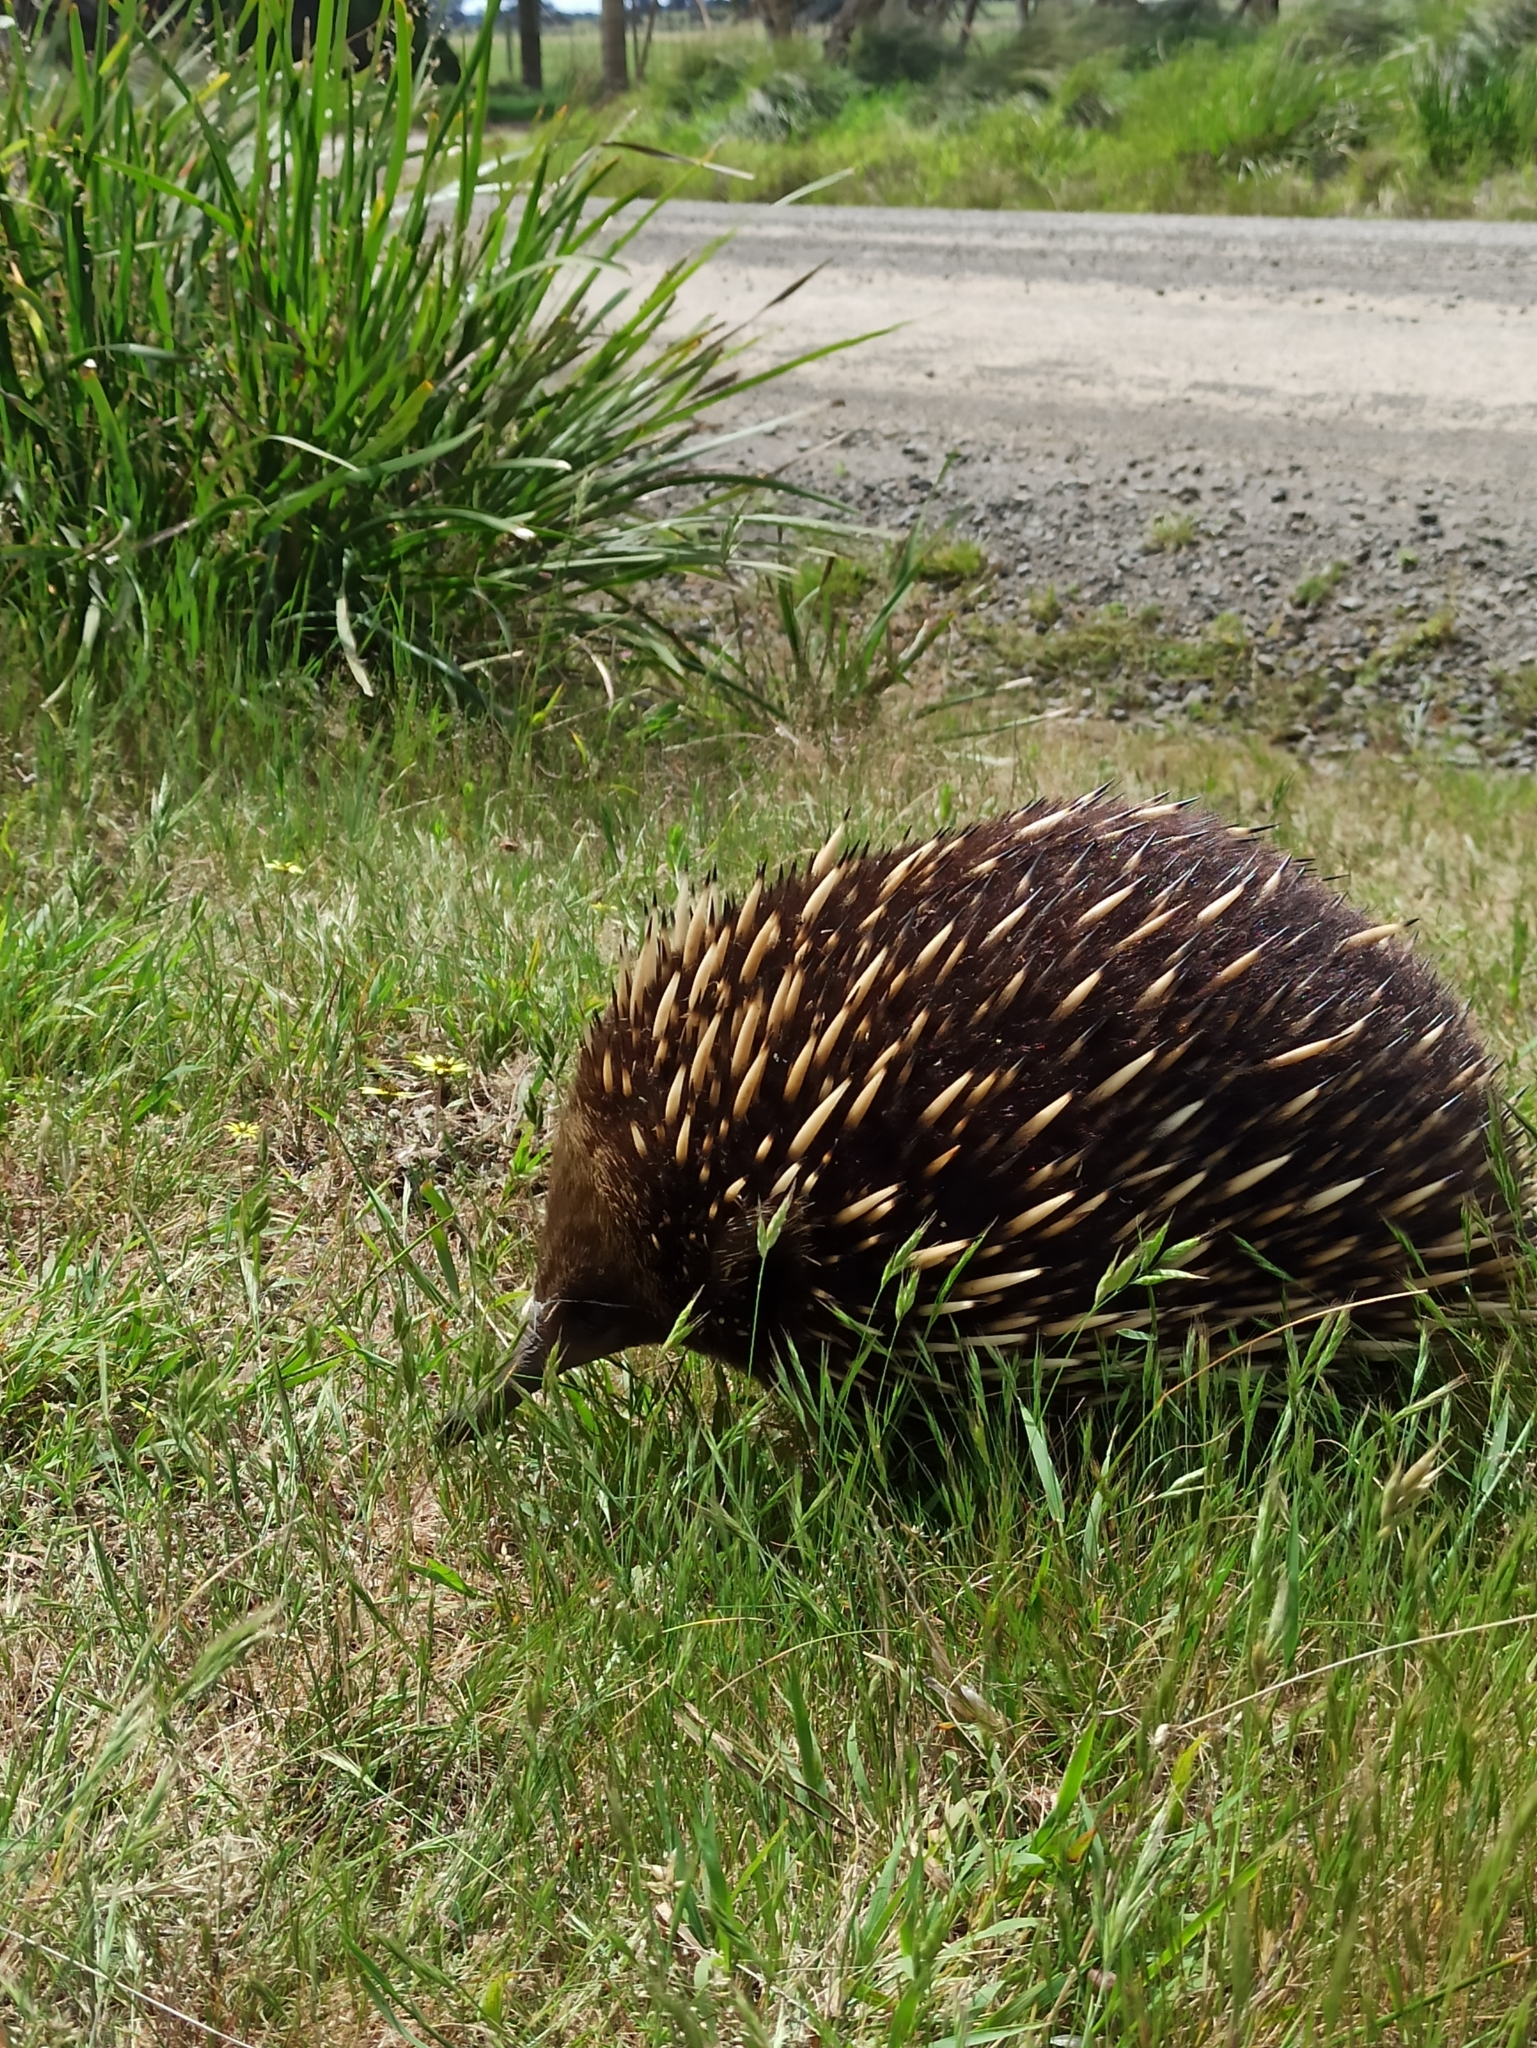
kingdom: Animalia
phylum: Chordata
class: Mammalia
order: Monotremata
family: Tachyglossidae
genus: Tachyglossus
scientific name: Tachyglossus aculeatus
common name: Short-beaked echidna
